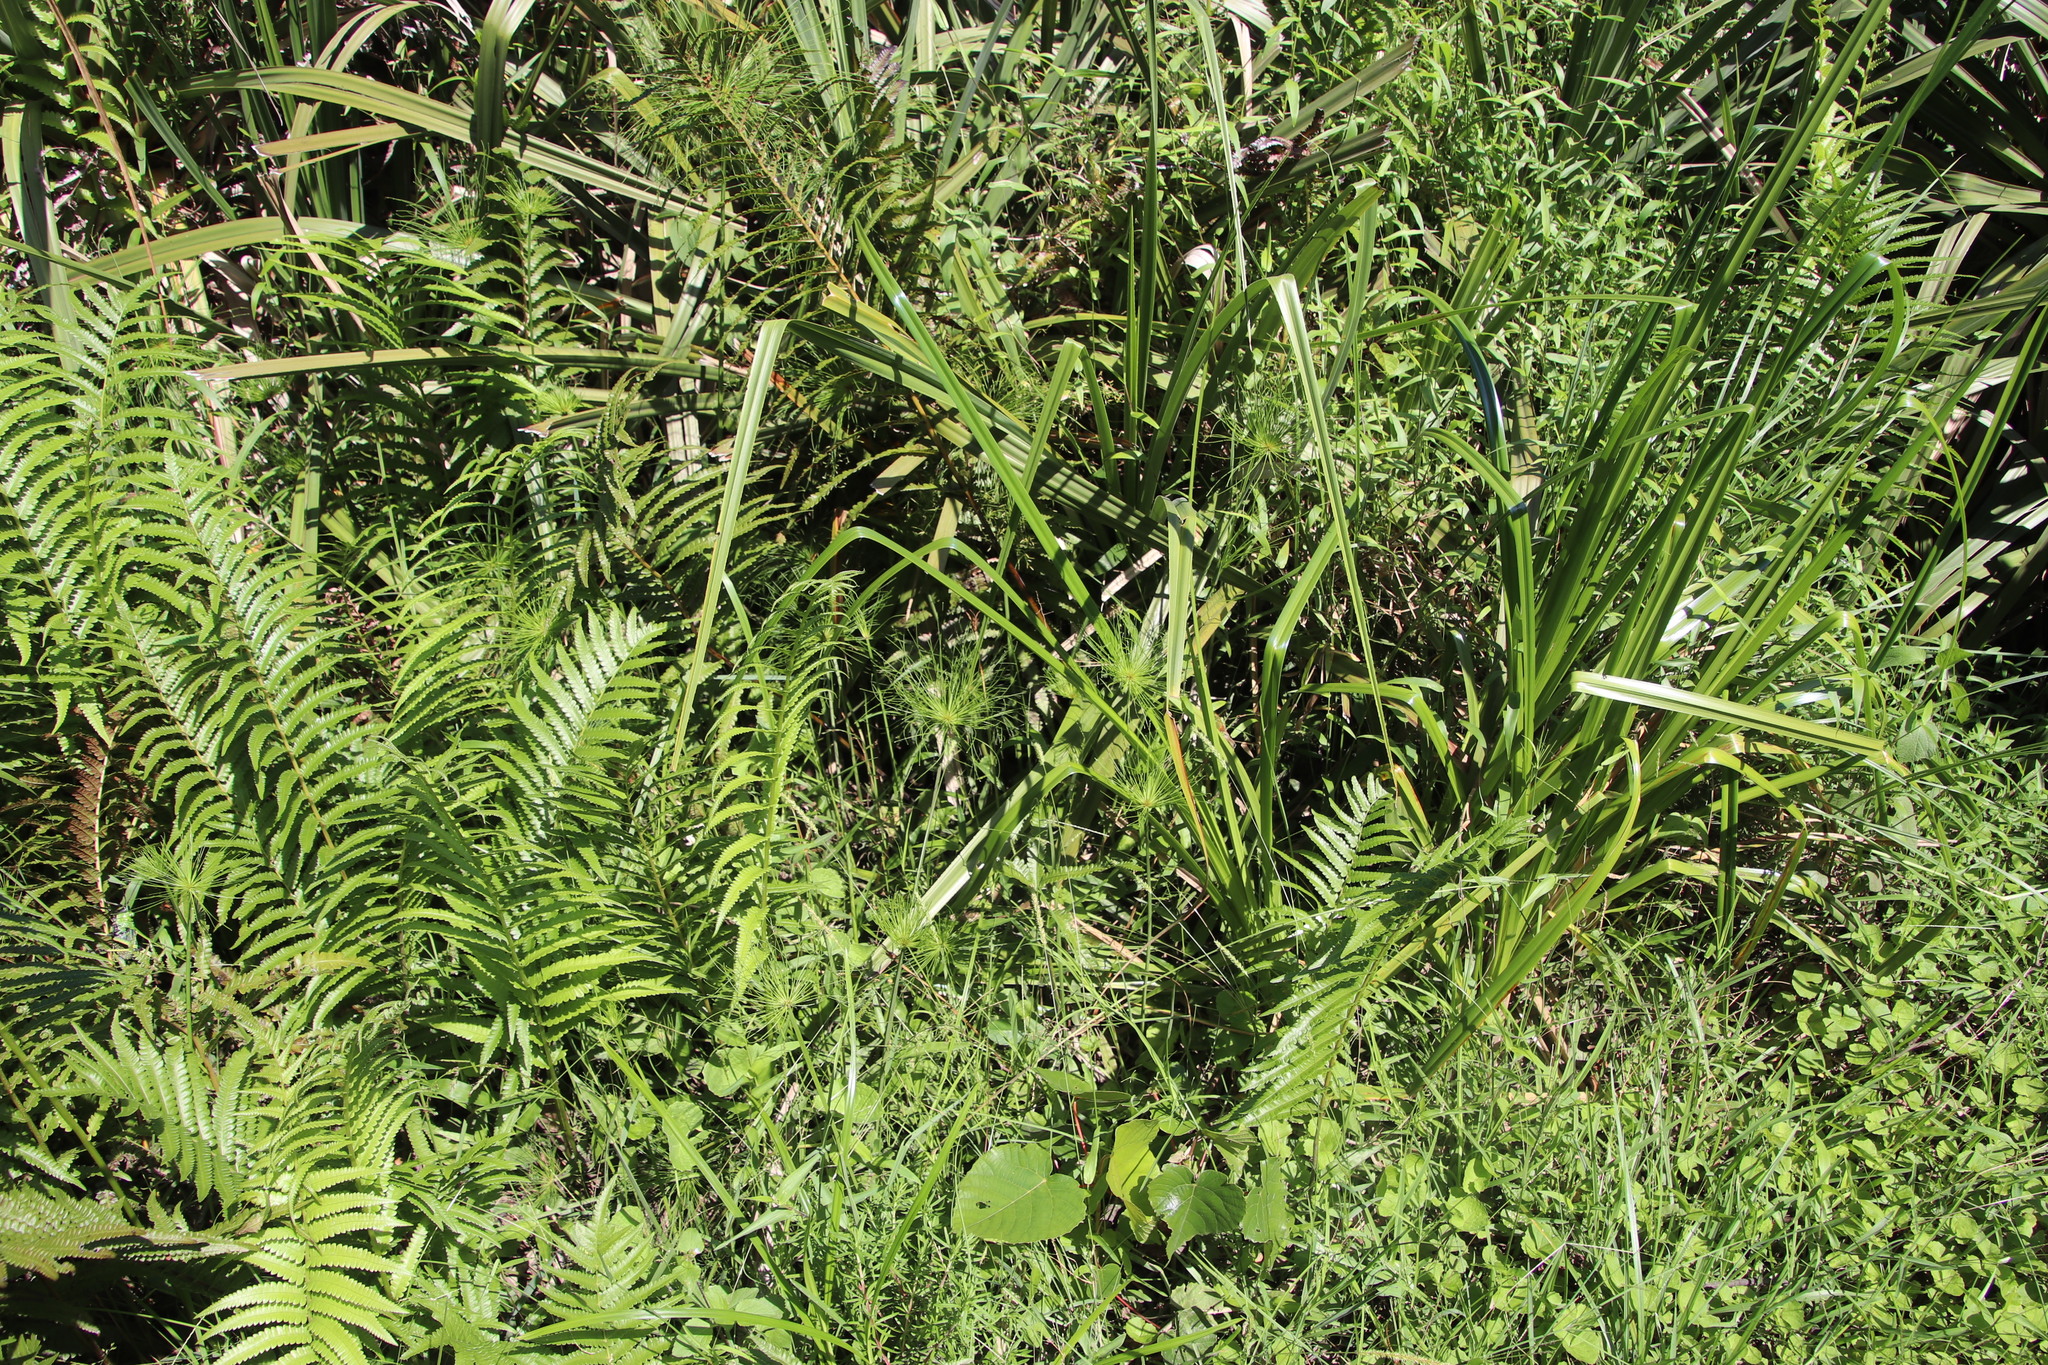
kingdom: Plantae
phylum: Tracheophyta
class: Liliopsida
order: Poales
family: Cyperaceae
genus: Cyperus
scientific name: Cyperus prolifer
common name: Miniature flatsedge
